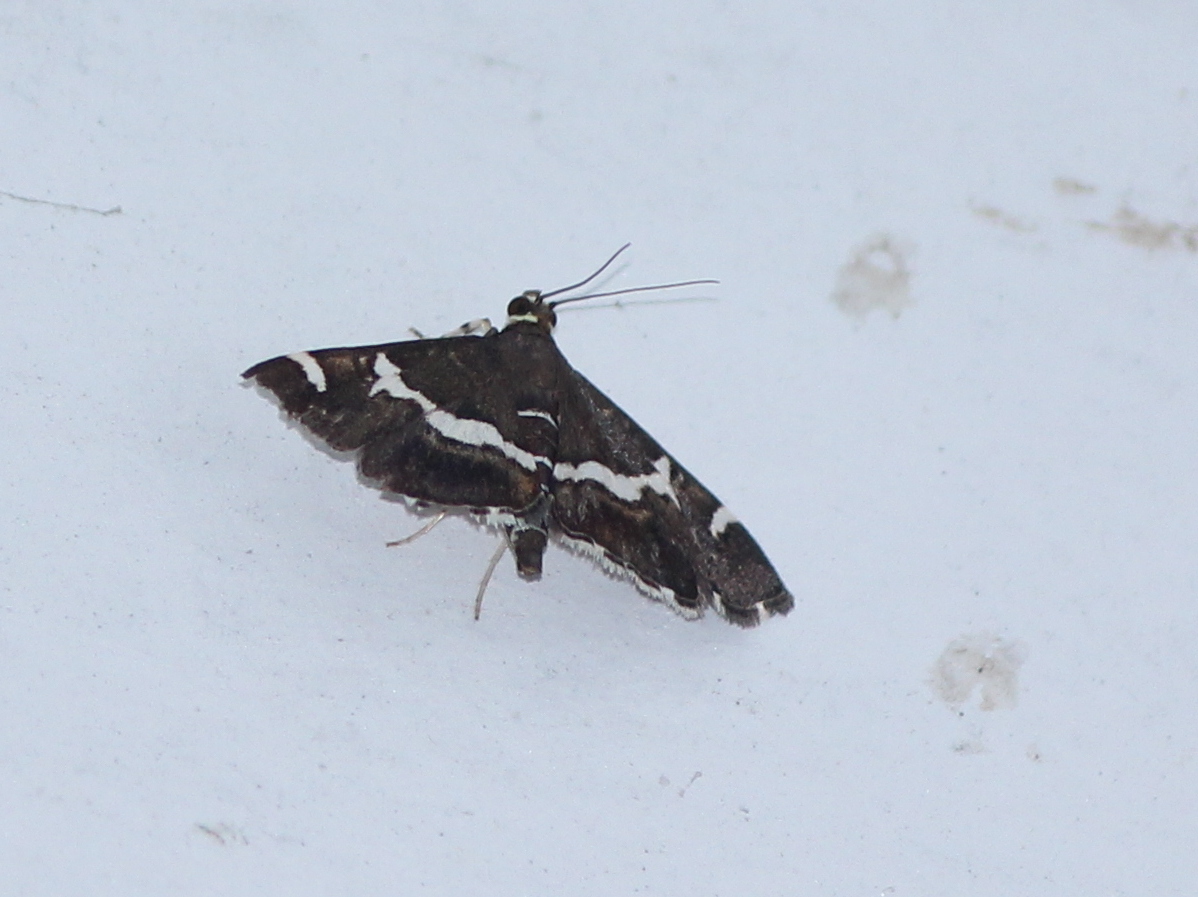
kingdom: Animalia
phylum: Arthropoda
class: Insecta
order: Lepidoptera
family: Crambidae
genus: Spoladea
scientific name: Spoladea recurvalis
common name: Beet webworm moth
